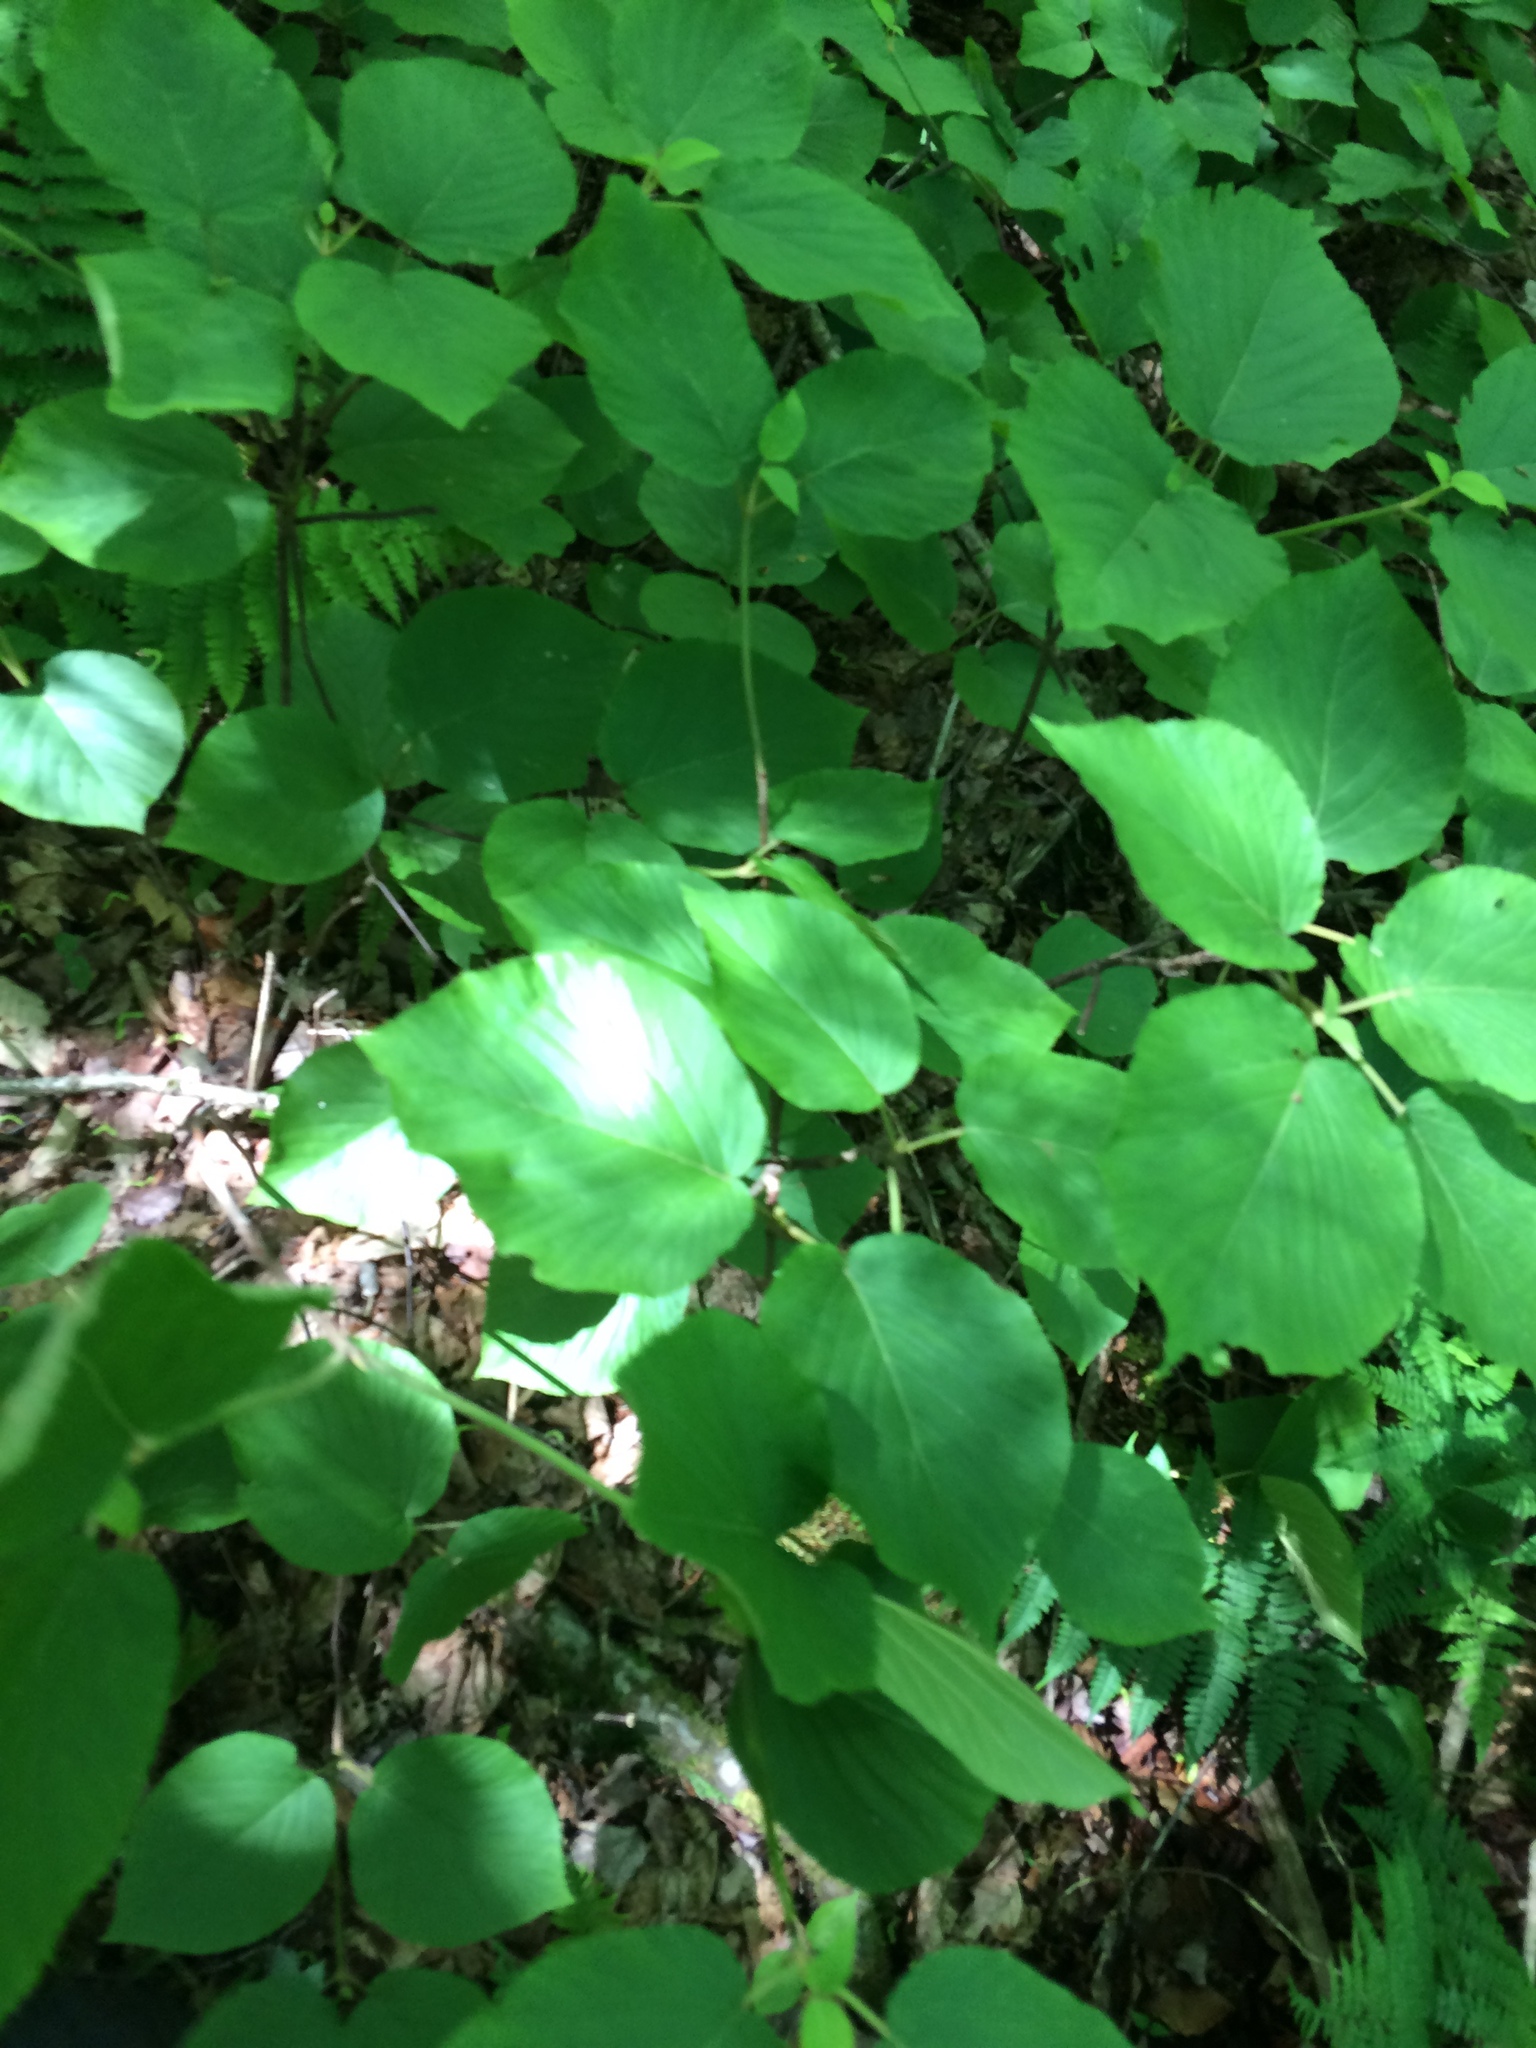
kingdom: Plantae
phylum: Tracheophyta
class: Magnoliopsida
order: Dipsacales
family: Viburnaceae
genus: Viburnum
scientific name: Viburnum lantanoides
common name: Hobblebush
